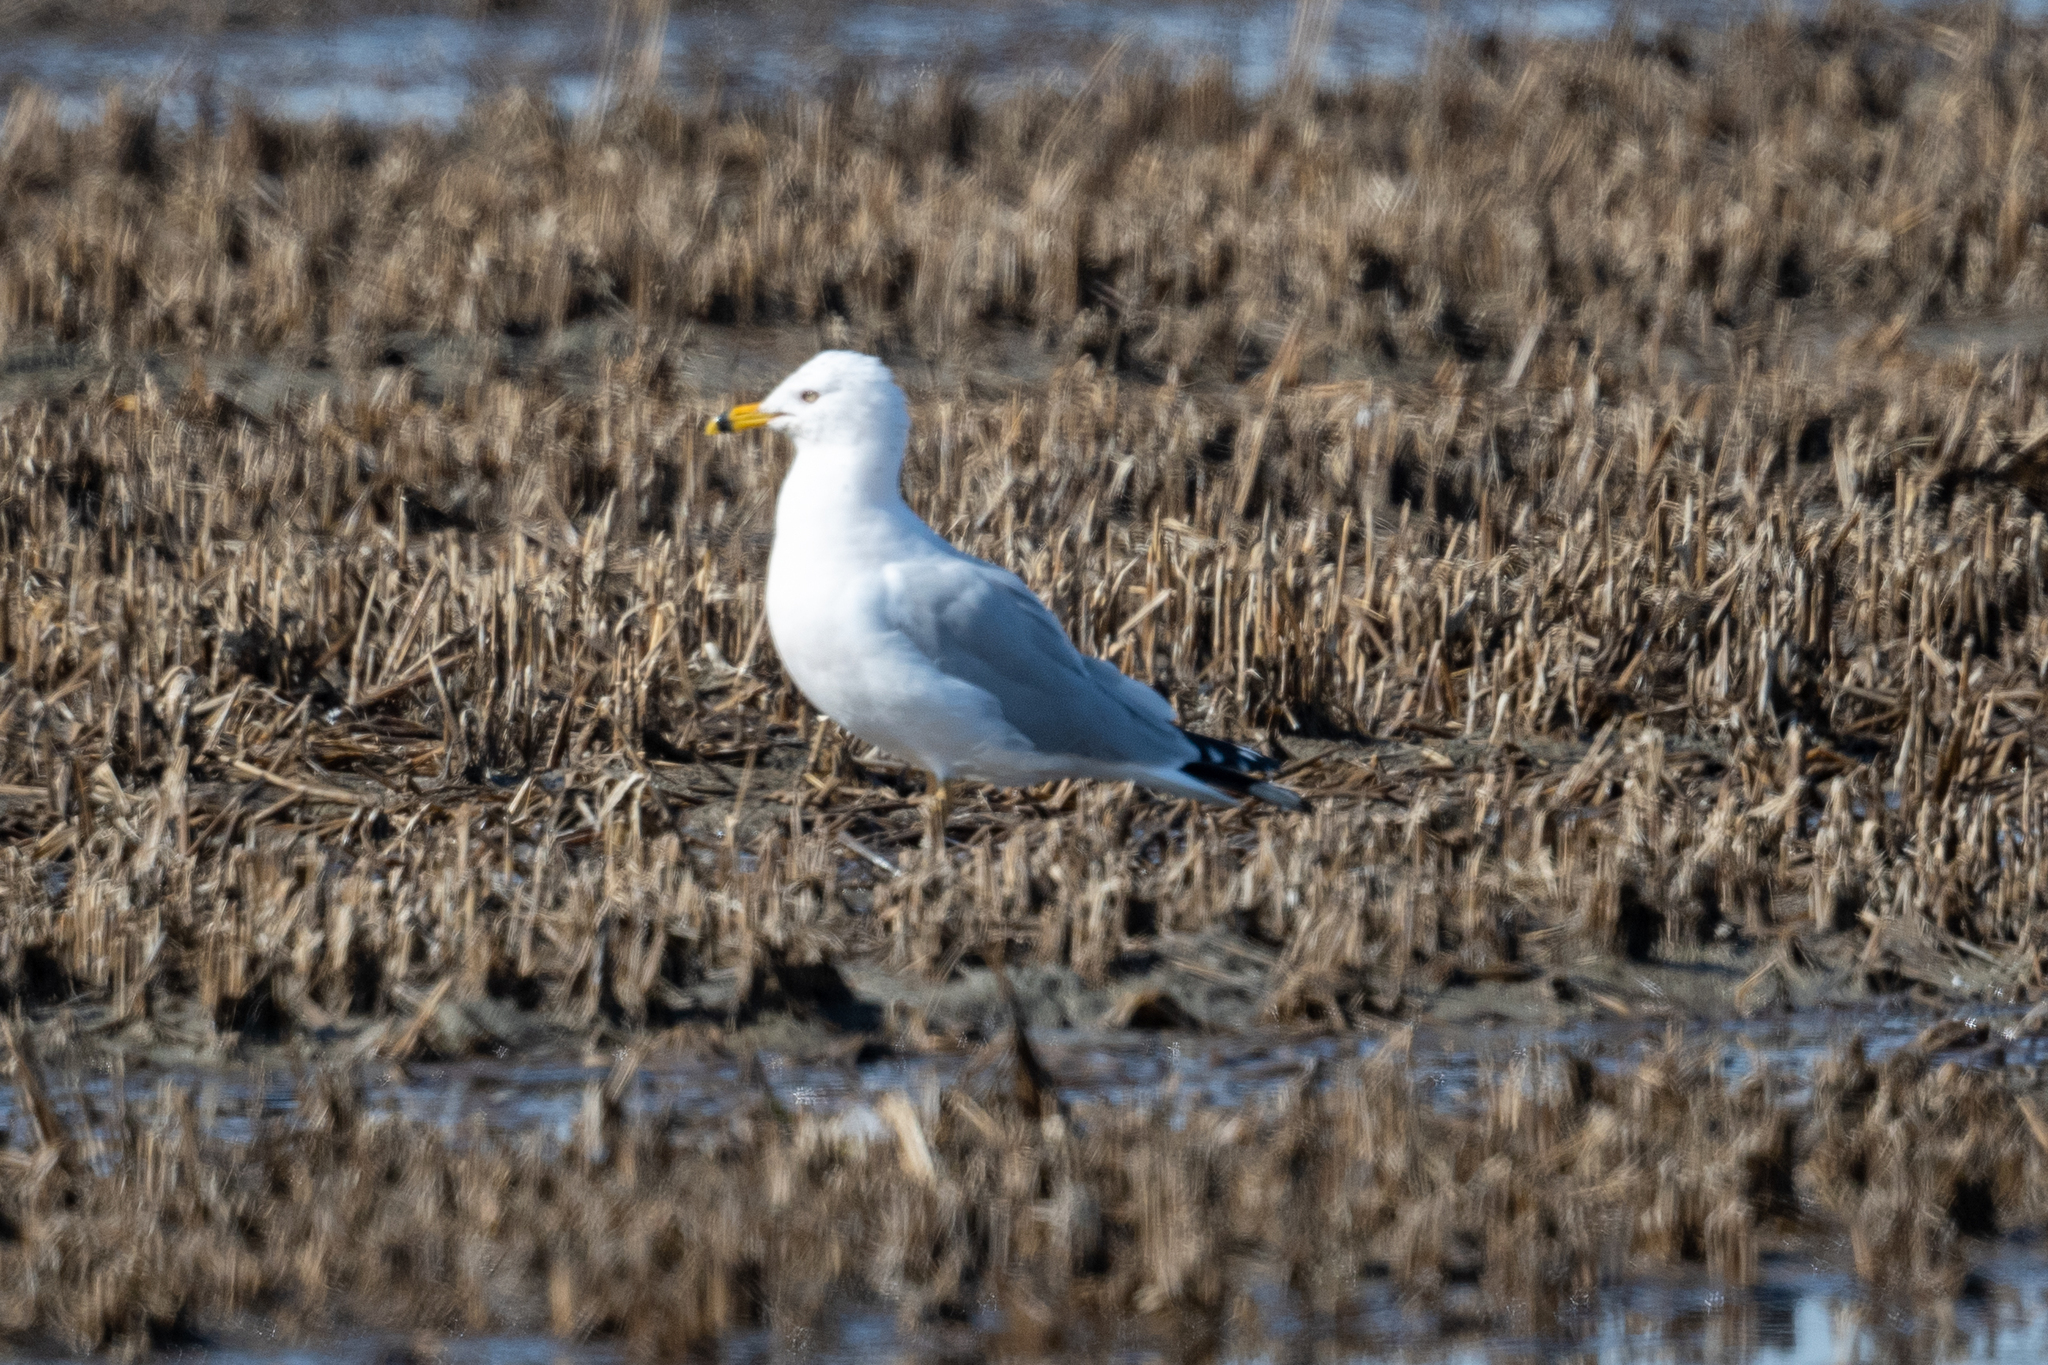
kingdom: Animalia
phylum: Chordata
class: Aves
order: Charadriiformes
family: Laridae
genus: Larus
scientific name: Larus delawarensis
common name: Ring-billed gull
